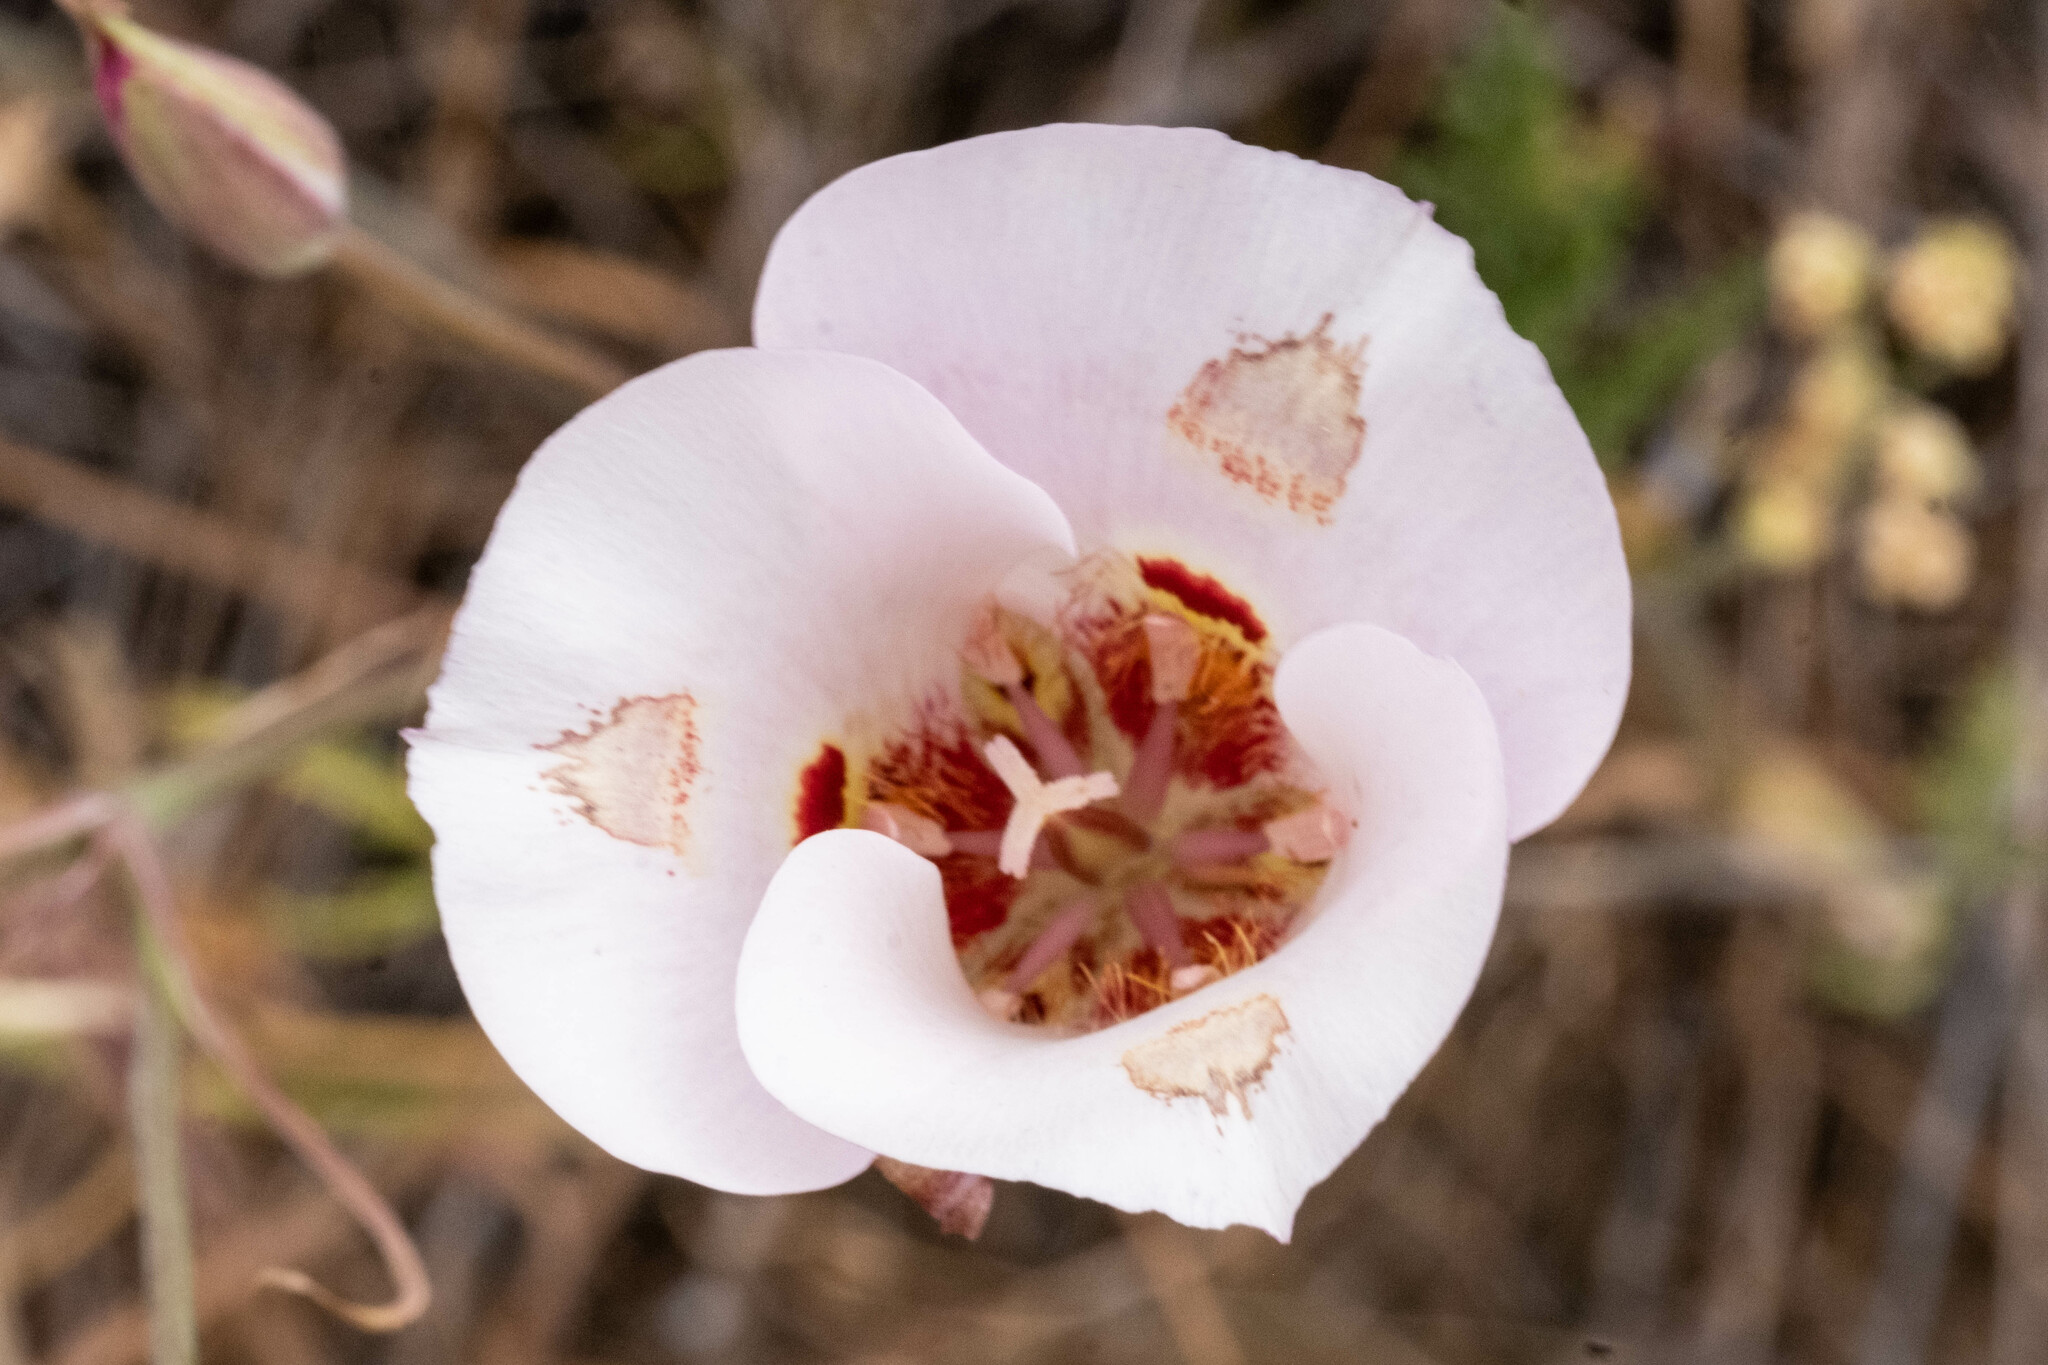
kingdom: Plantae
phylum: Tracheophyta
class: Liliopsida
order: Liliales
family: Liliaceae
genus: Calochortus
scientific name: Calochortus venustus
